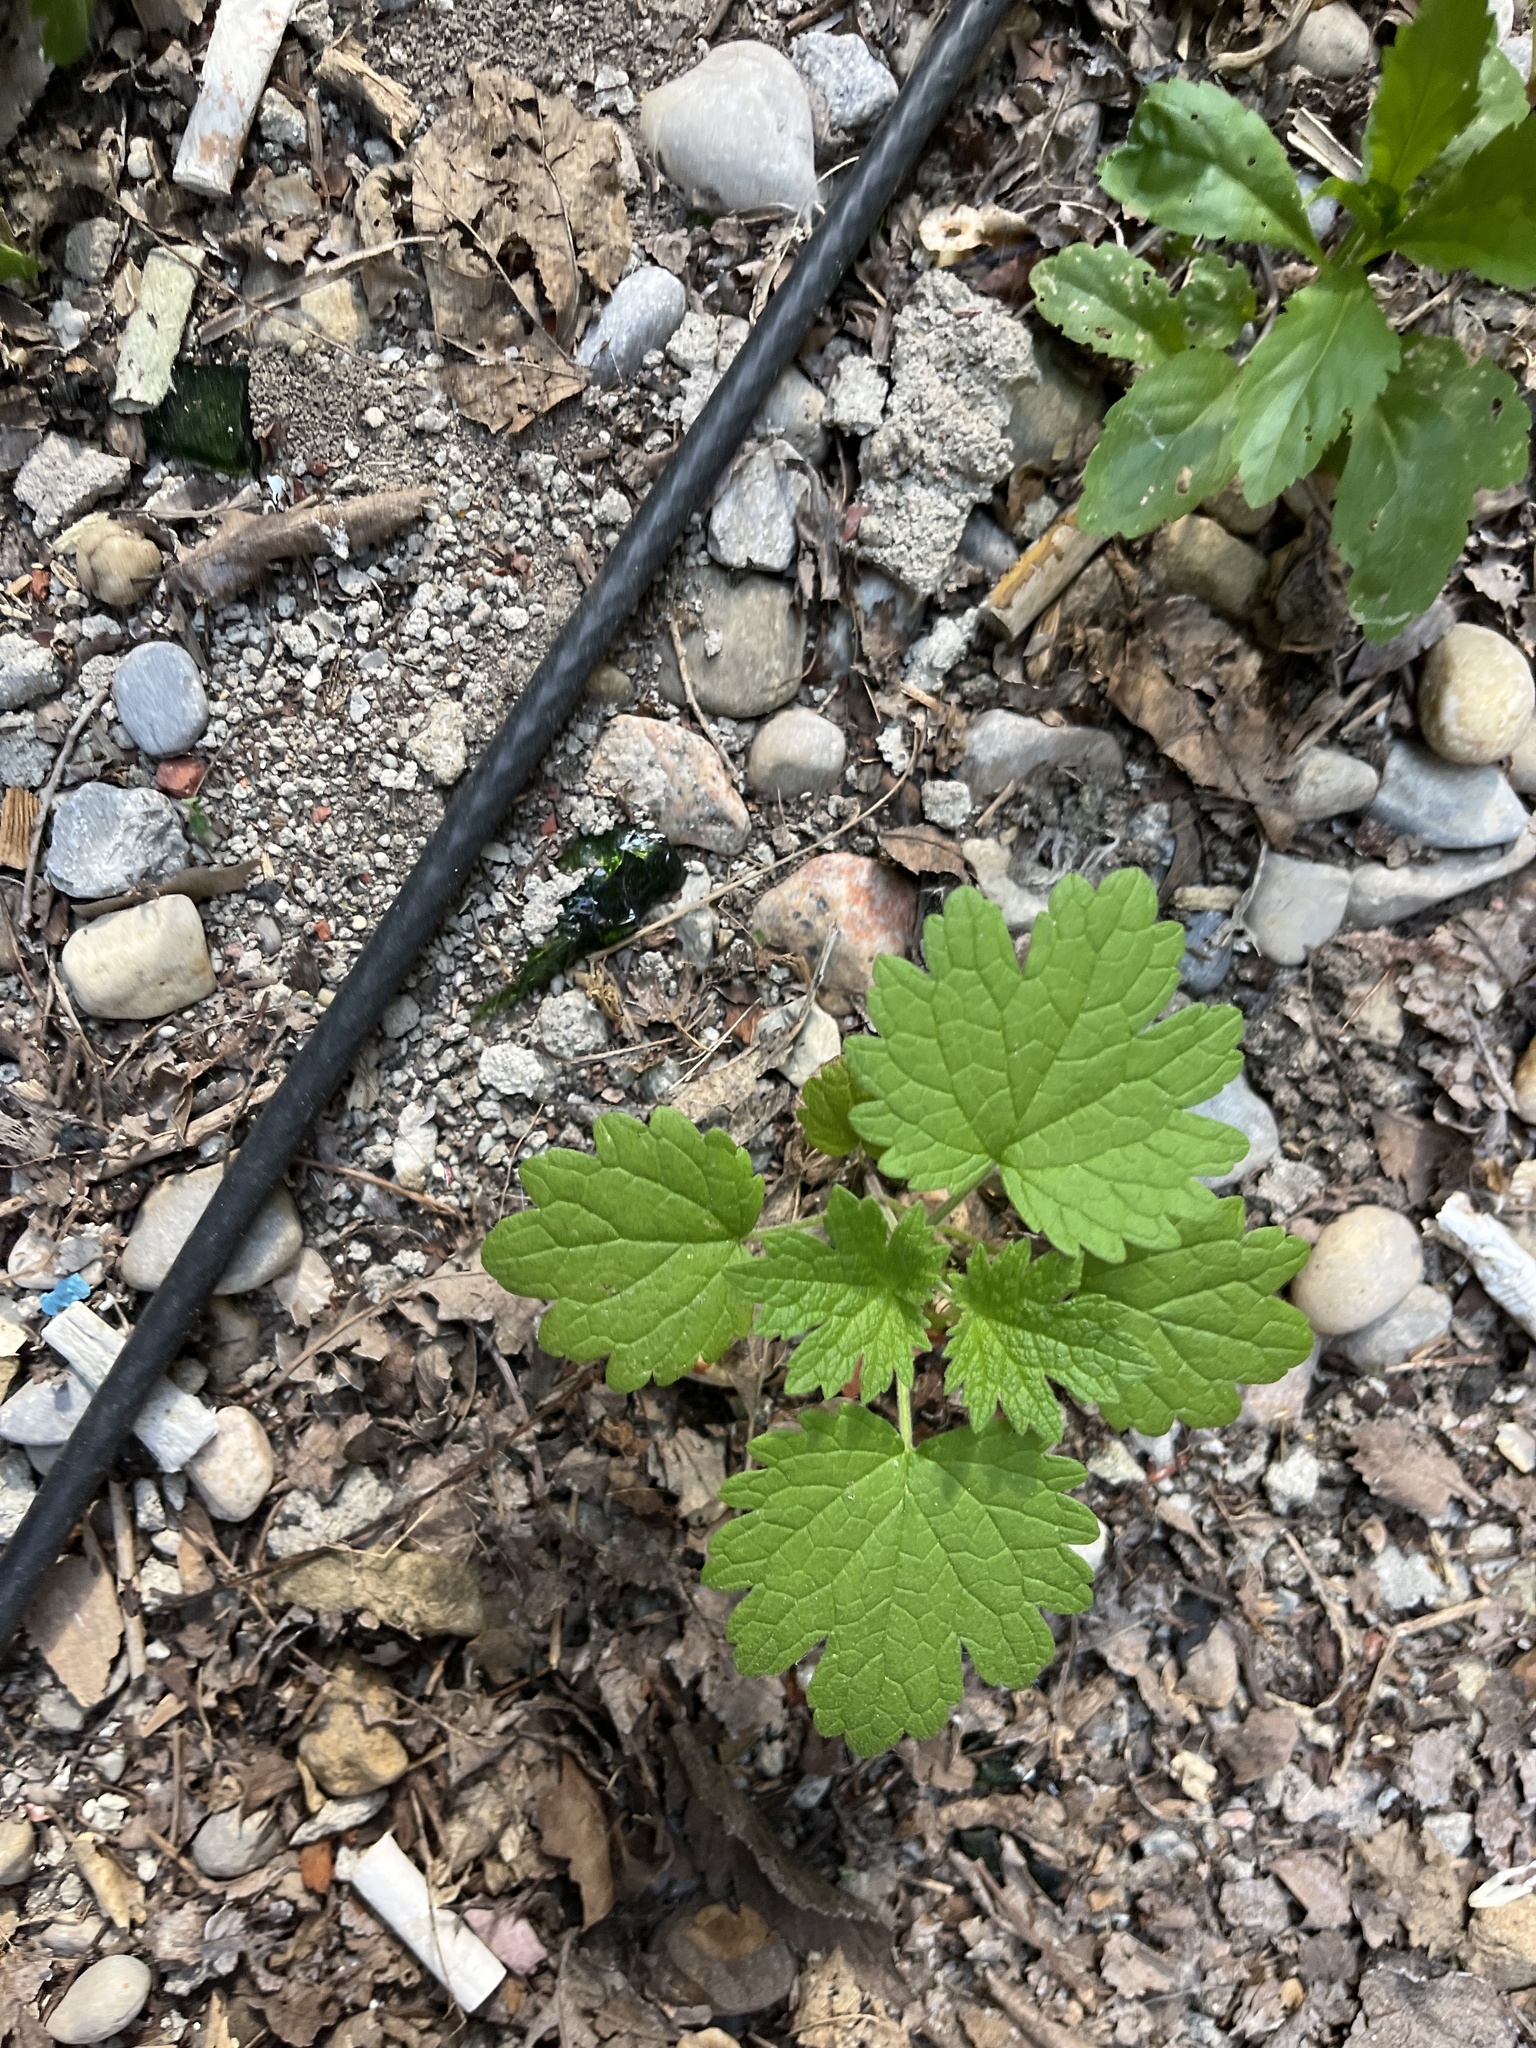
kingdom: Plantae
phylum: Tracheophyta
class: Magnoliopsida
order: Lamiales
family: Lamiaceae
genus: Leonurus
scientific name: Leonurus cardiaca
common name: Motherwort
